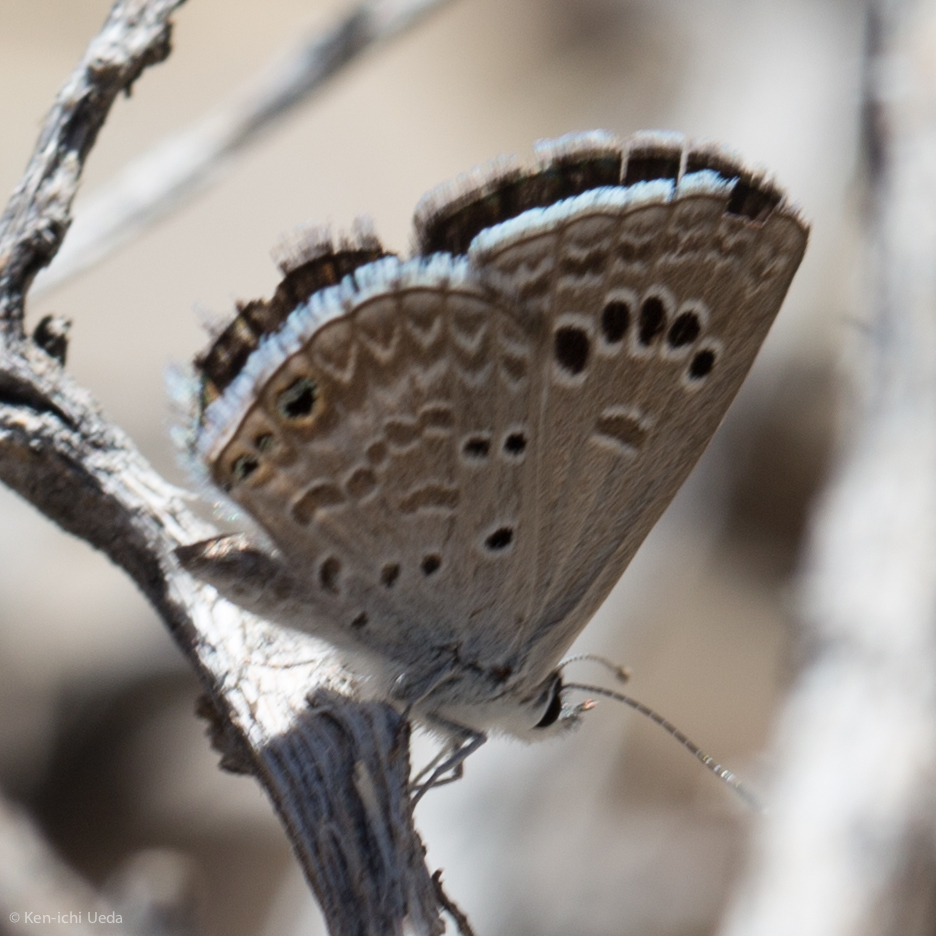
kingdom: Animalia
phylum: Arthropoda
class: Insecta
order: Lepidoptera
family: Lycaenidae
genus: Echinargus
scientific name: Echinargus isola
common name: Reakirt's blue
